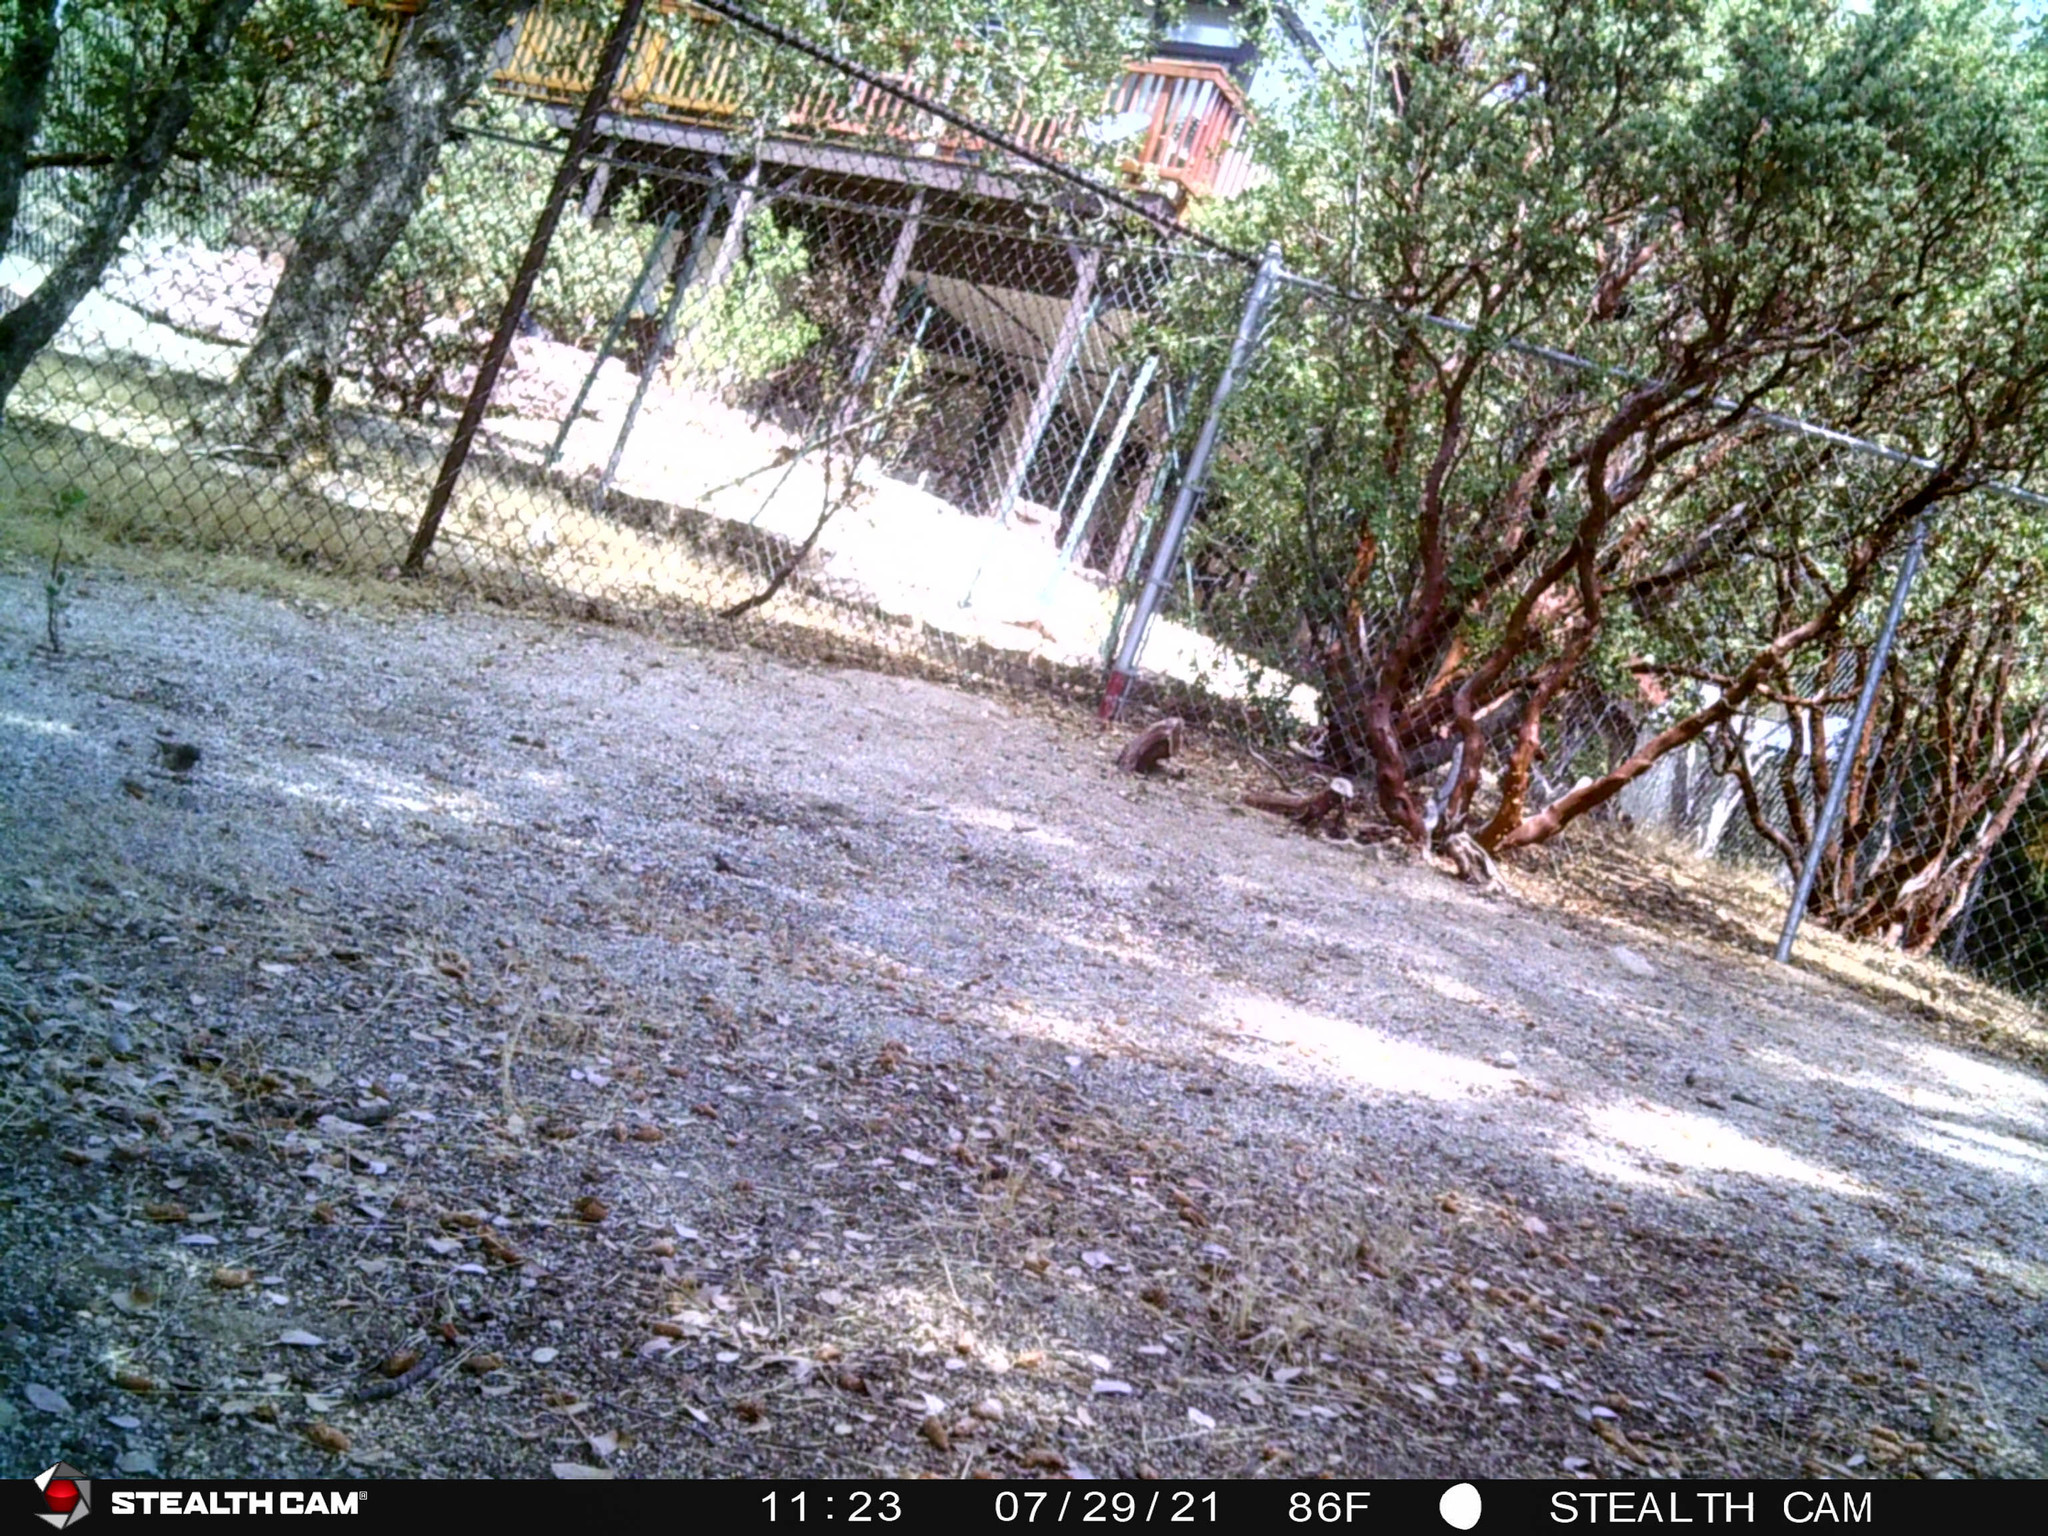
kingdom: Animalia
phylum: Chordata
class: Aves
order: Passeriformes
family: Passerellidae
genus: Junco
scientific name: Junco hyemalis
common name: Dark-eyed junco
